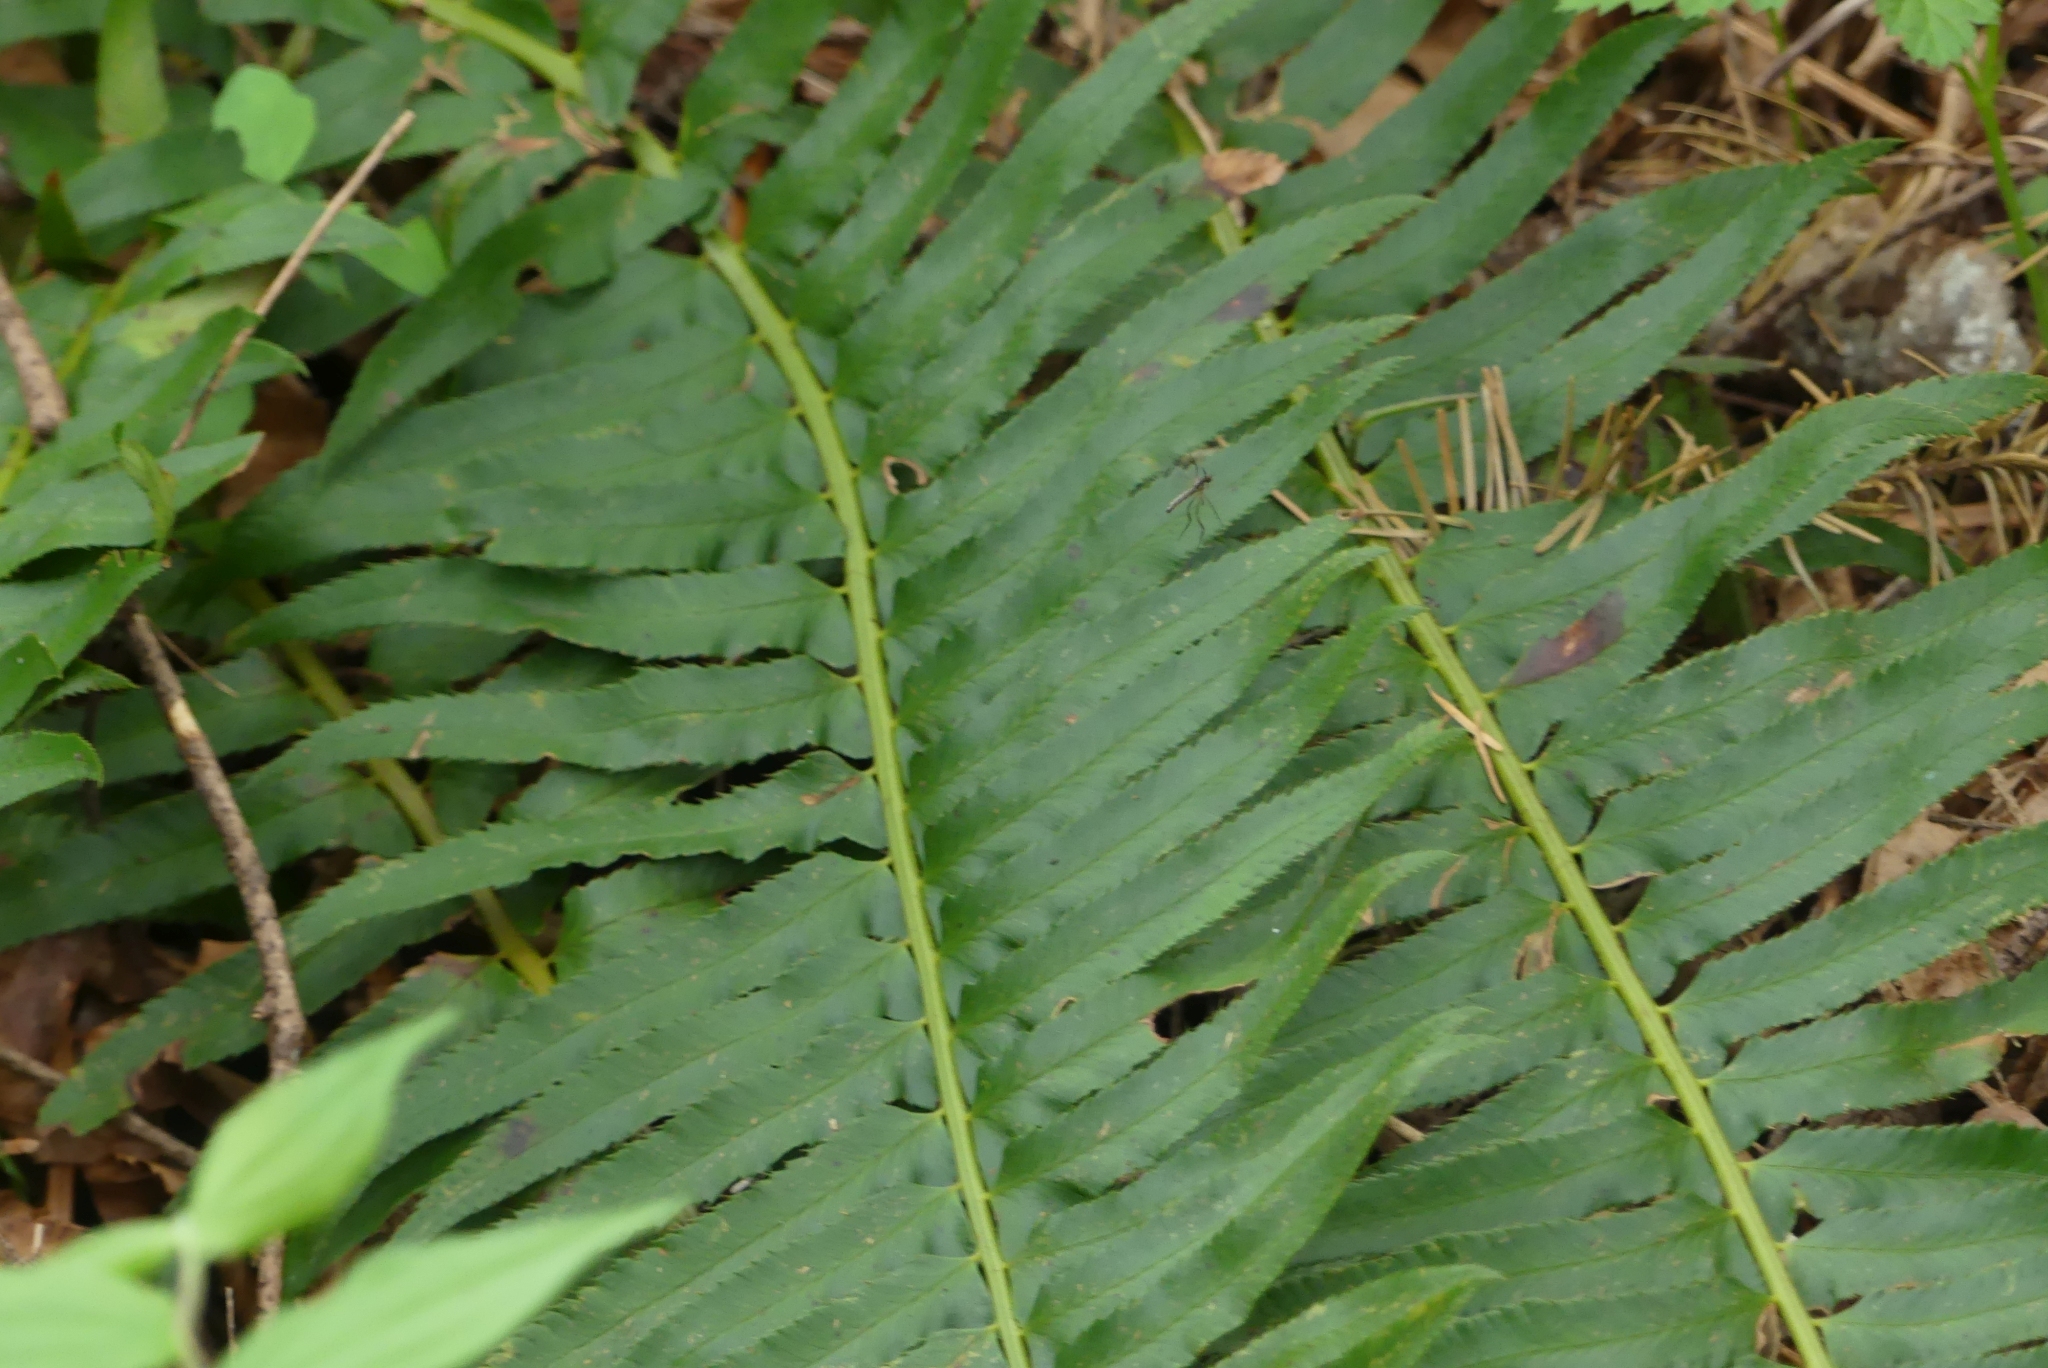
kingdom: Plantae
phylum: Tracheophyta
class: Polypodiopsida
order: Polypodiales
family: Dryopteridaceae
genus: Polystichum
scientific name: Polystichum munitum
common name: Western sword-fern
